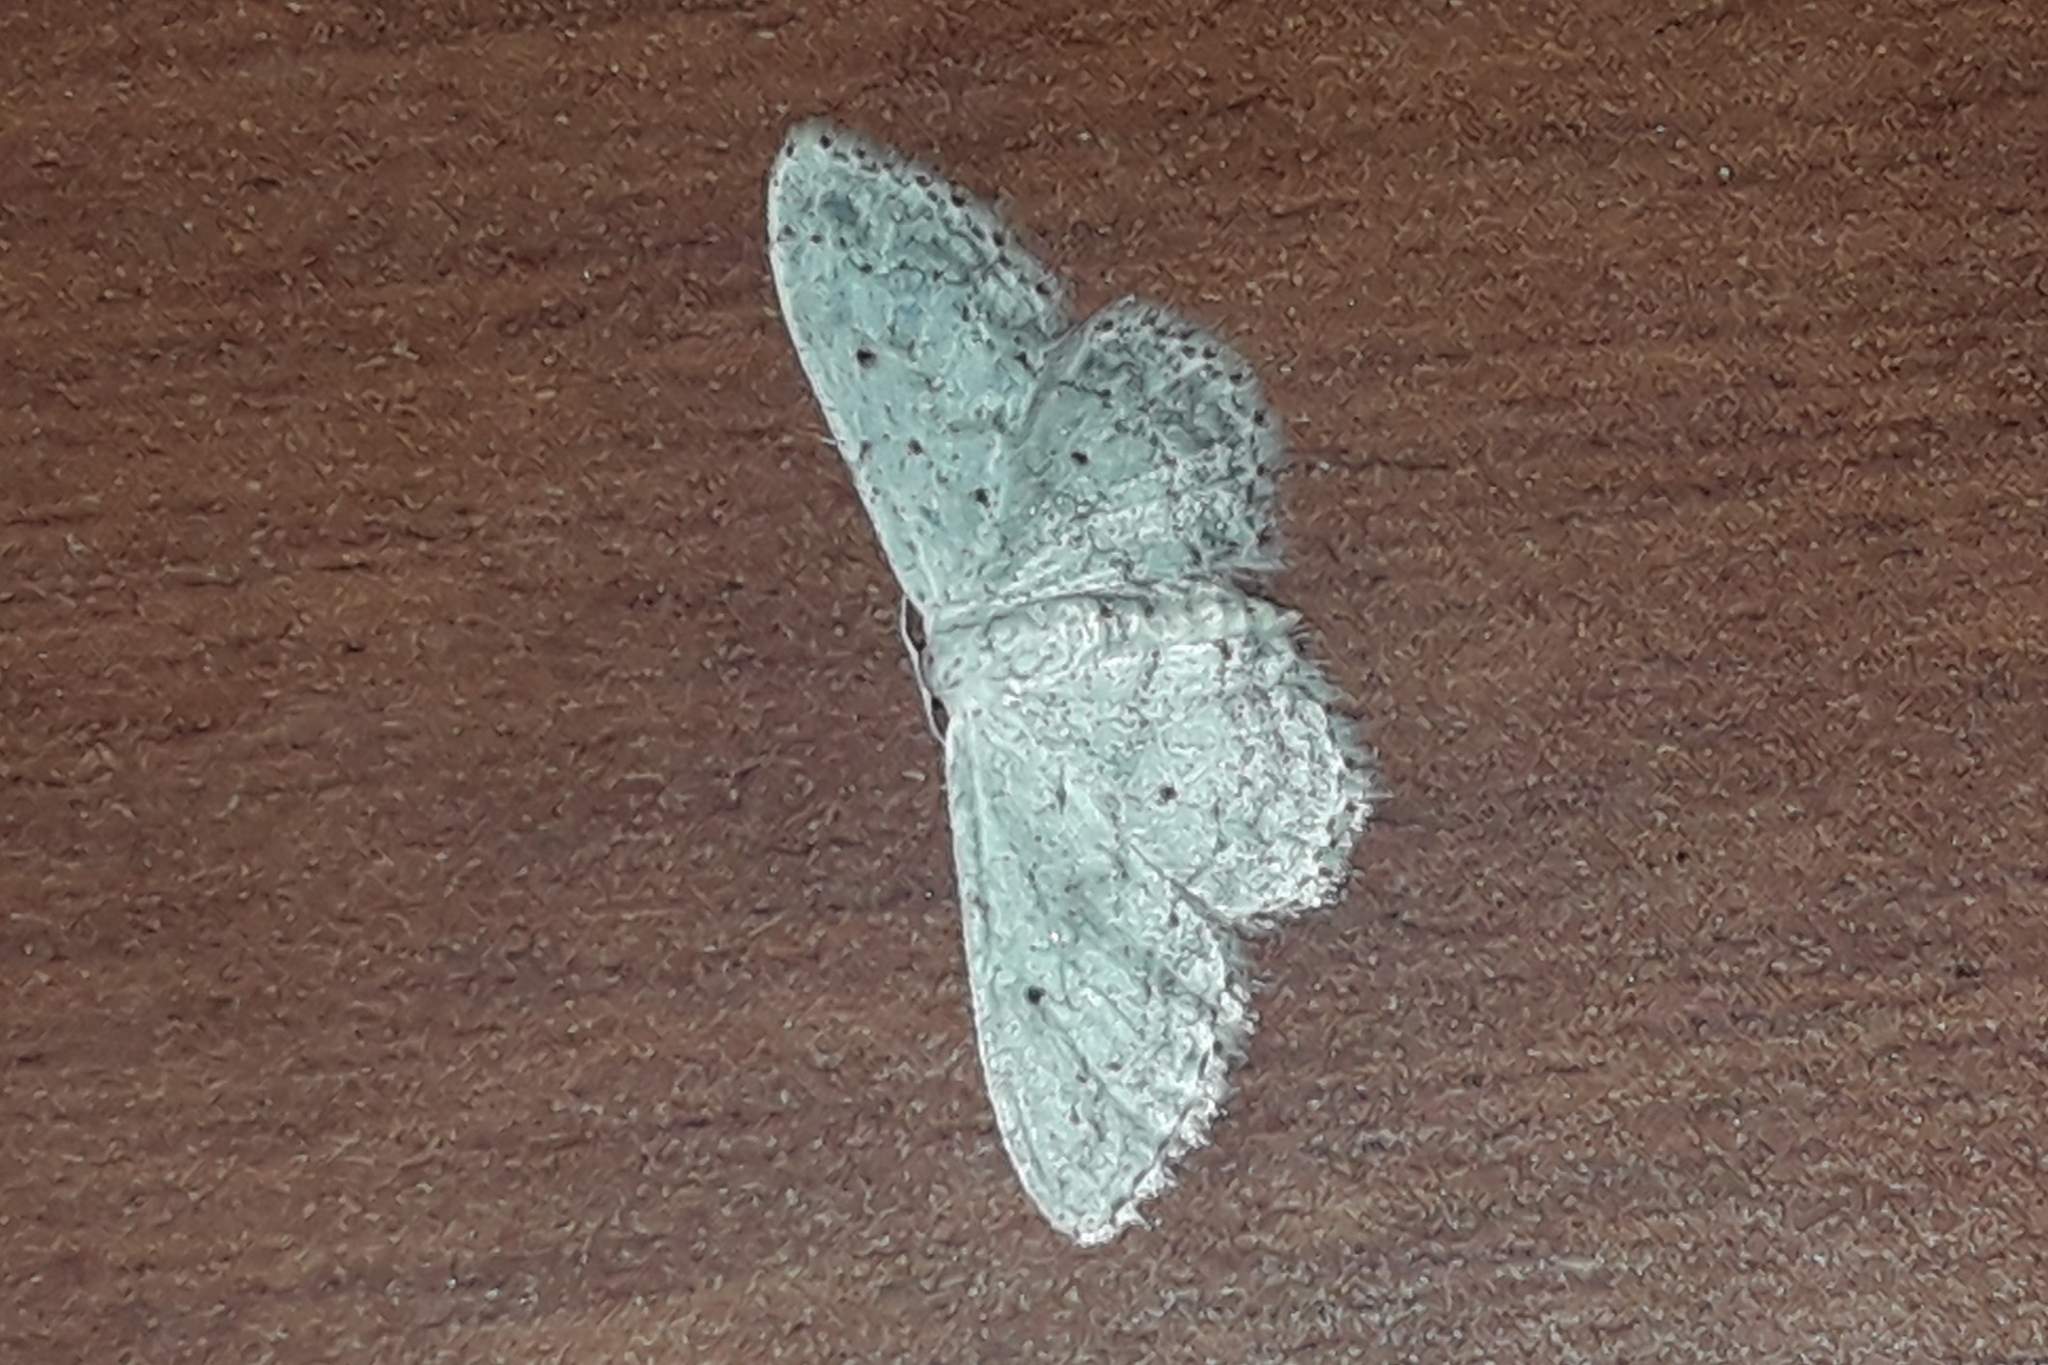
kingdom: Animalia
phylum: Arthropoda
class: Insecta
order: Lepidoptera
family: Geometridae
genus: Idaea
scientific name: Idaea seriata
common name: Small dusty wave
